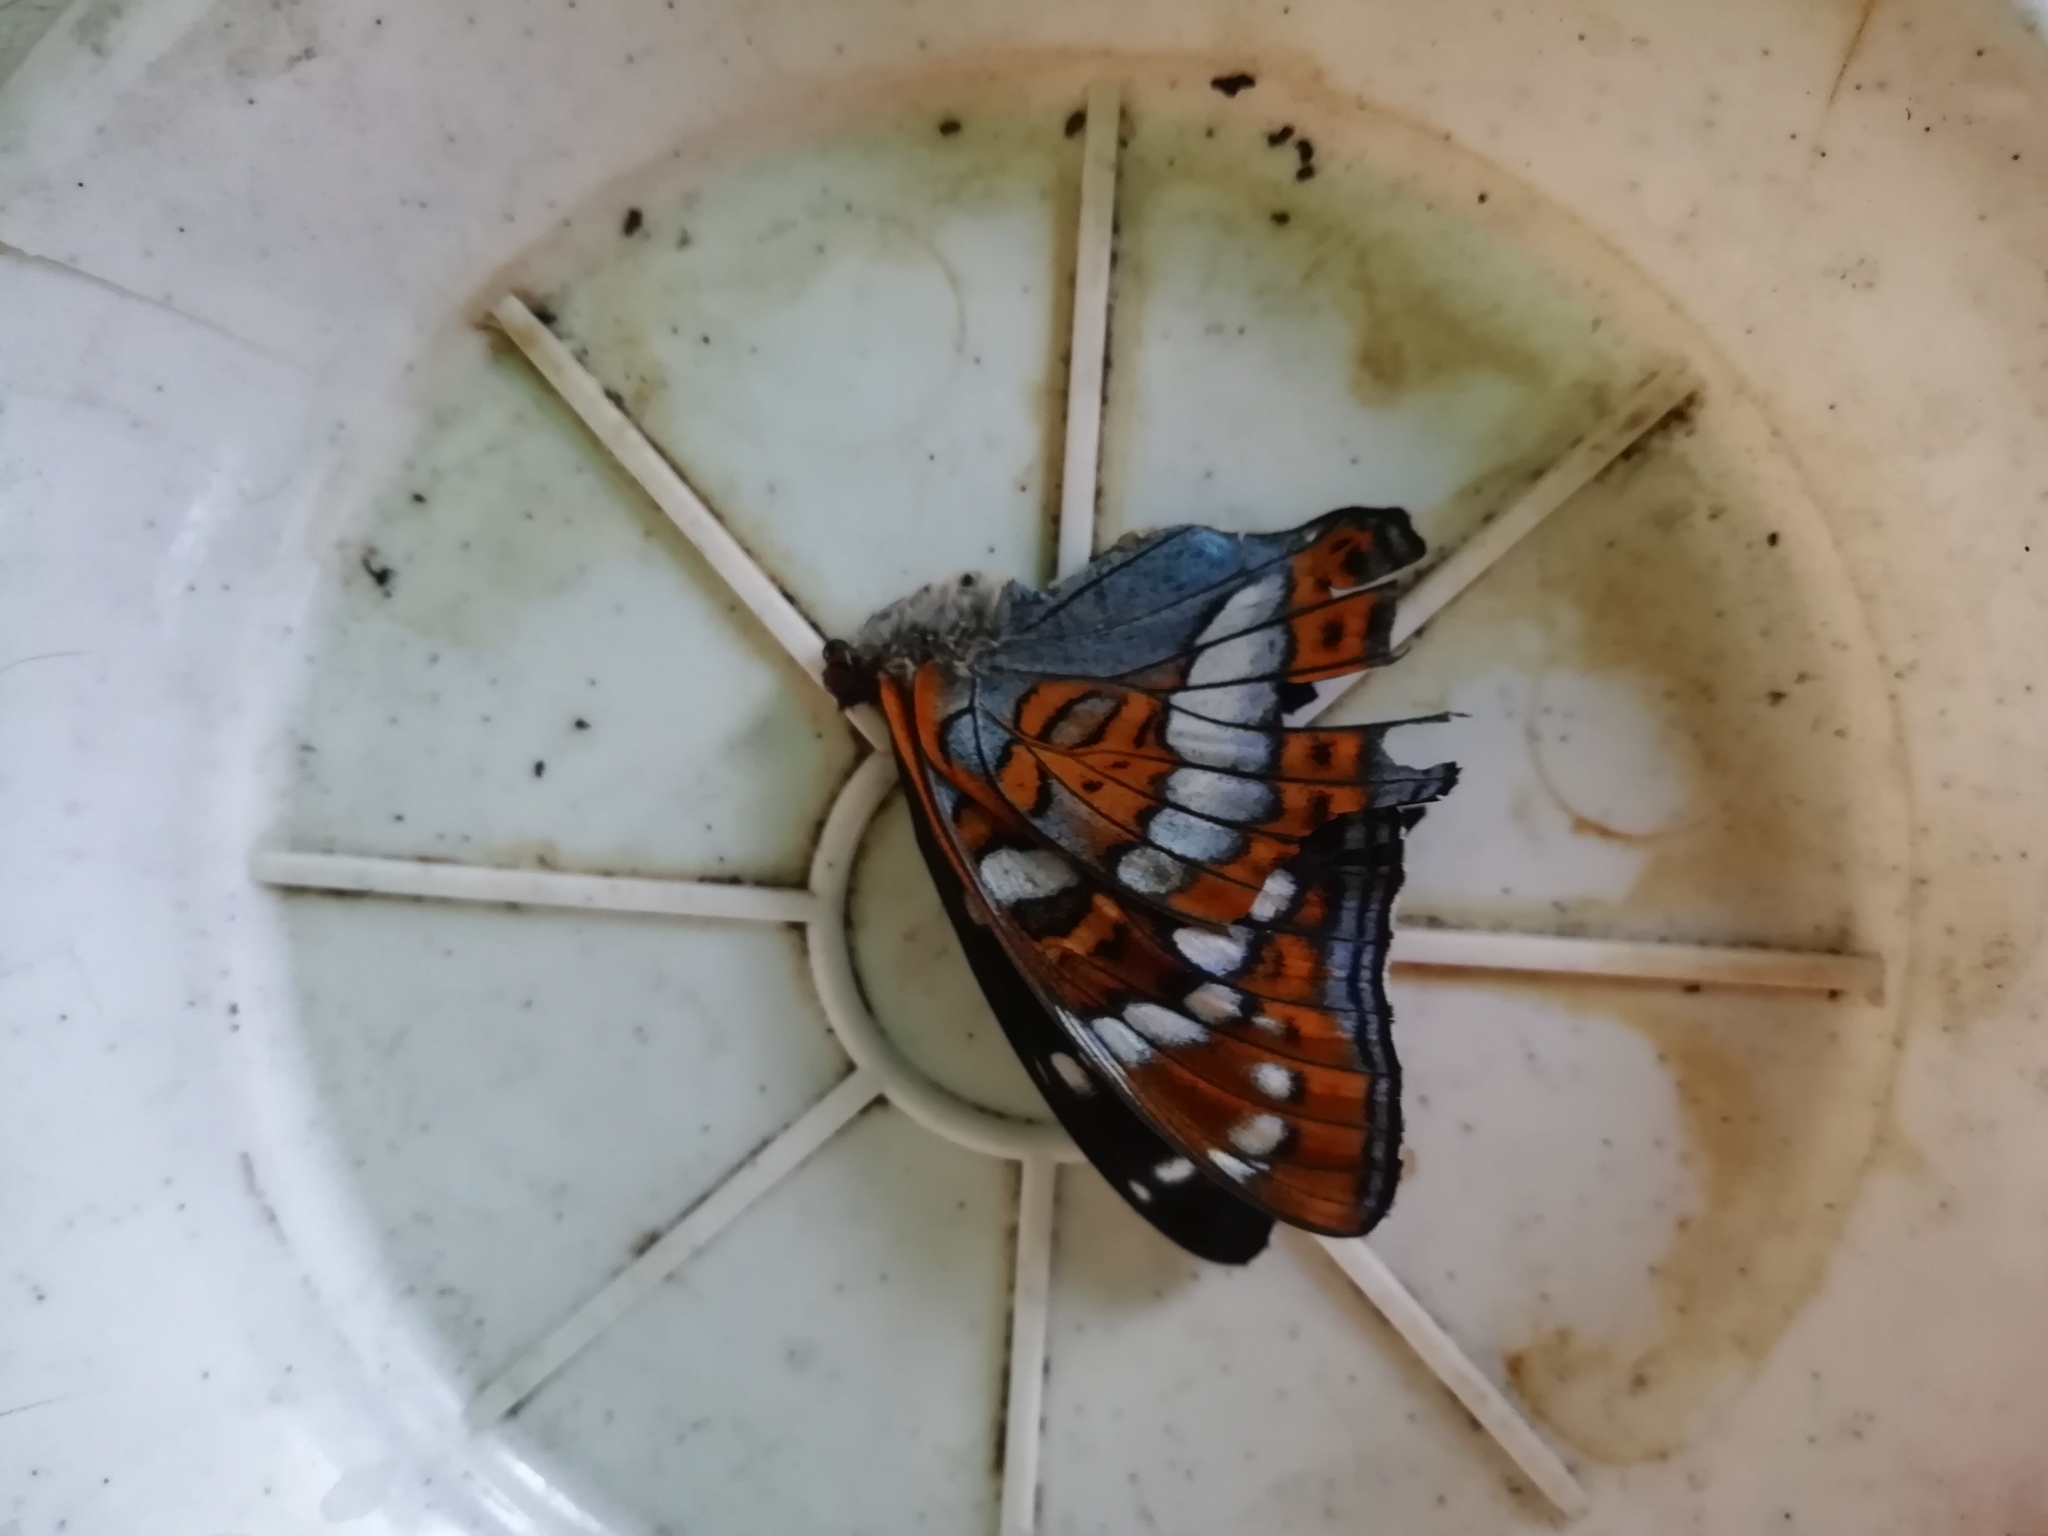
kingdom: Animalia
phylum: Arthropoda
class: Insecta
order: Lepidoptera
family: Nymphalidae
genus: Limenitis
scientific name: Limenitis populi
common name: Poplar admiral
